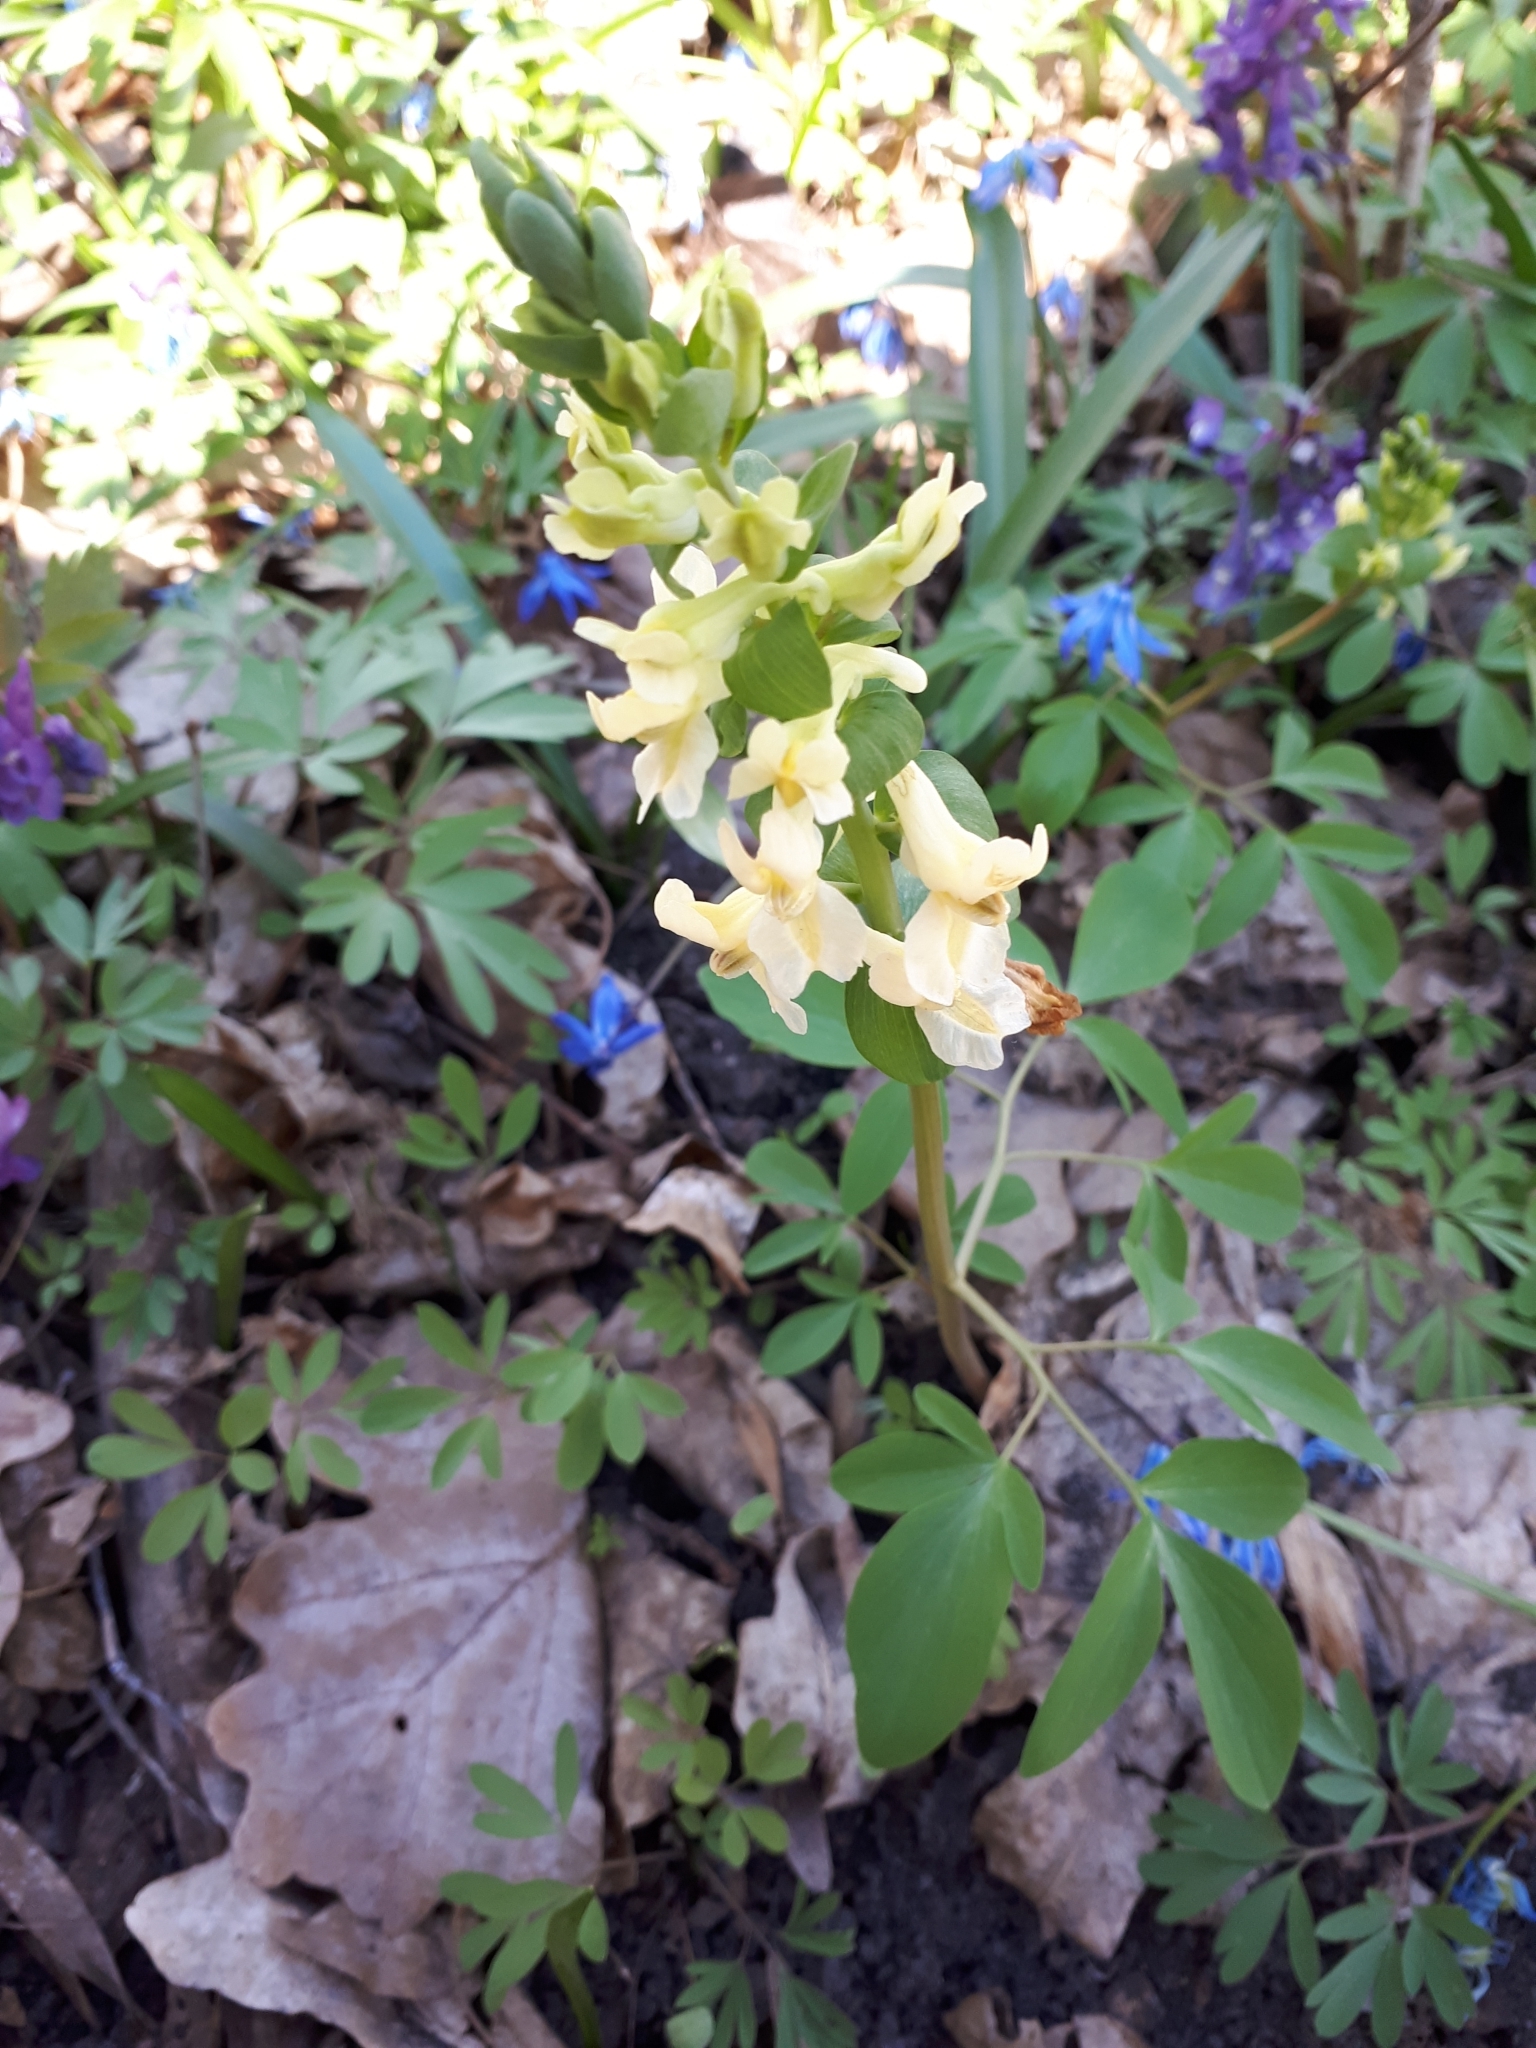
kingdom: Plantae
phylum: Tracheophyta
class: Magnoliopsida
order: Ranunculales
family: Papaveraceae
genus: Corydalis
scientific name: Corydalis cava
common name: Hollowroot
